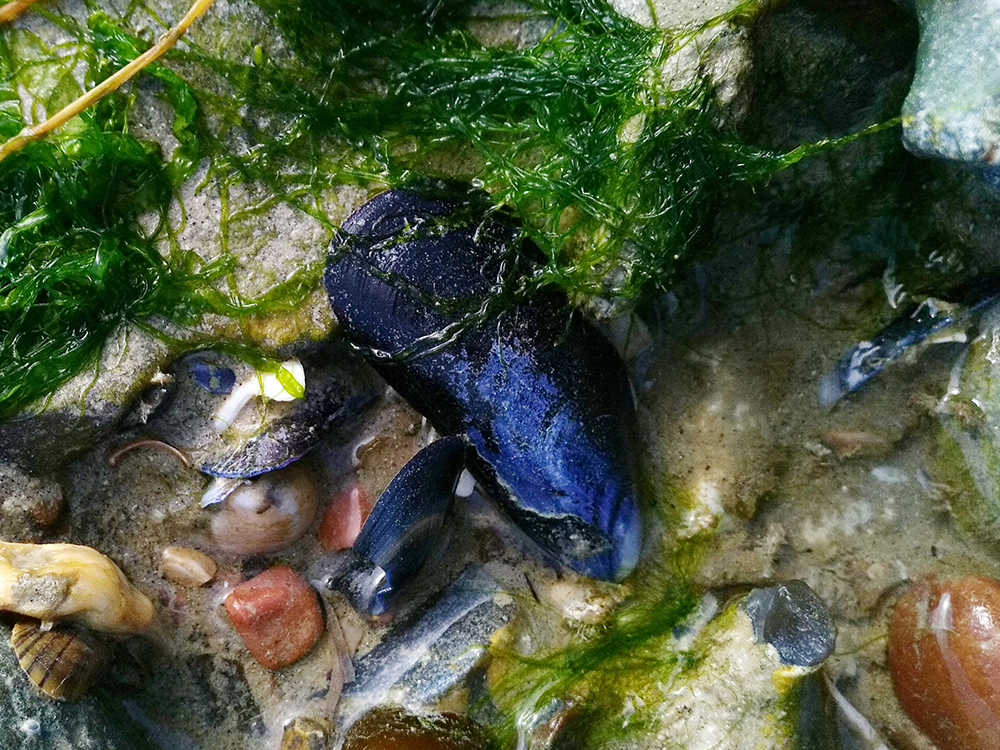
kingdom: Animalia
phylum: Mollusca
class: Bivalvia
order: Mytilida
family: Mytilidae
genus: Mytilus
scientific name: Mytilus edulis
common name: Blue mussel
